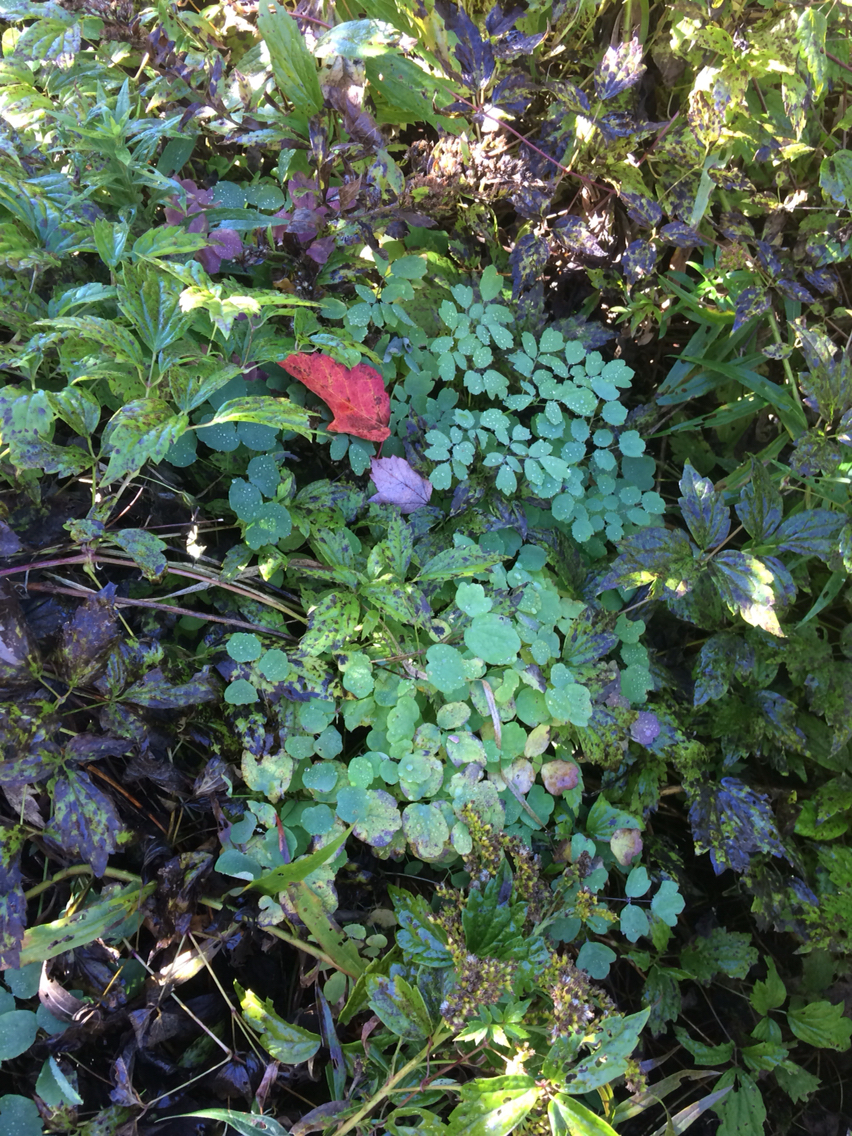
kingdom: Plantae
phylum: Tracheophyta
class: Magnoliopsida
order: Ranunculales
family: Ranunculaceae
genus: Thalictrum
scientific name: Thalictrum pubescens
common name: King-of-the-meadow
